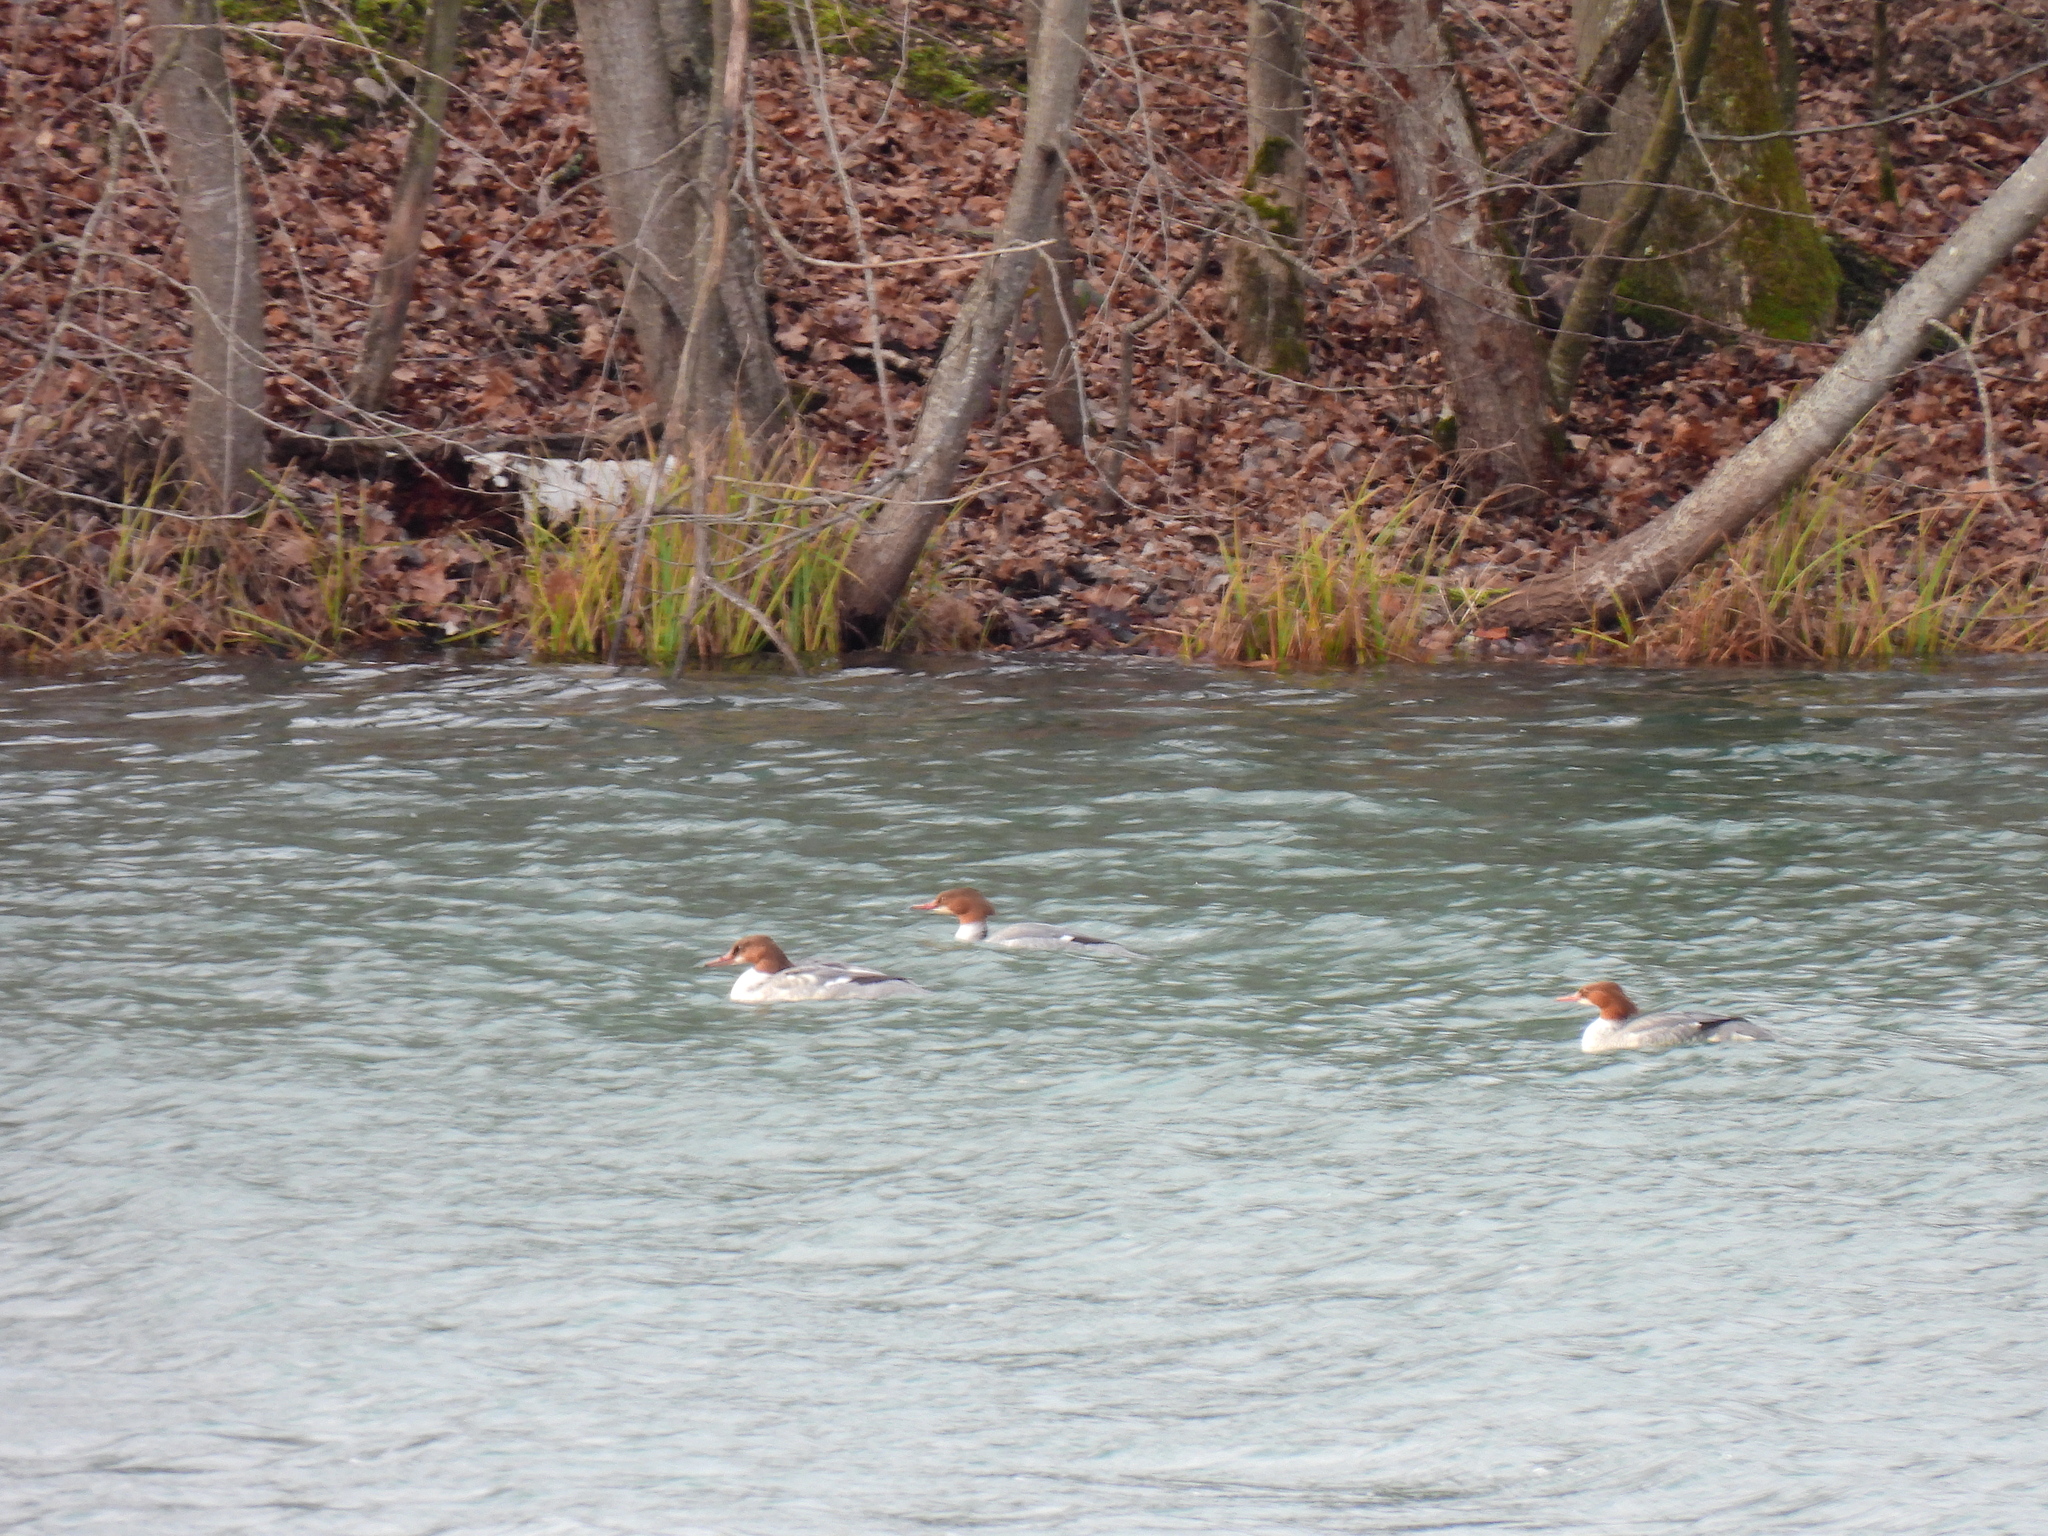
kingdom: Animalia
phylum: Chordata
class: Aves
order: Anseriformes
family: Anatidae
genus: Mergus
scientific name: Mergus merganser
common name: Common merganser
